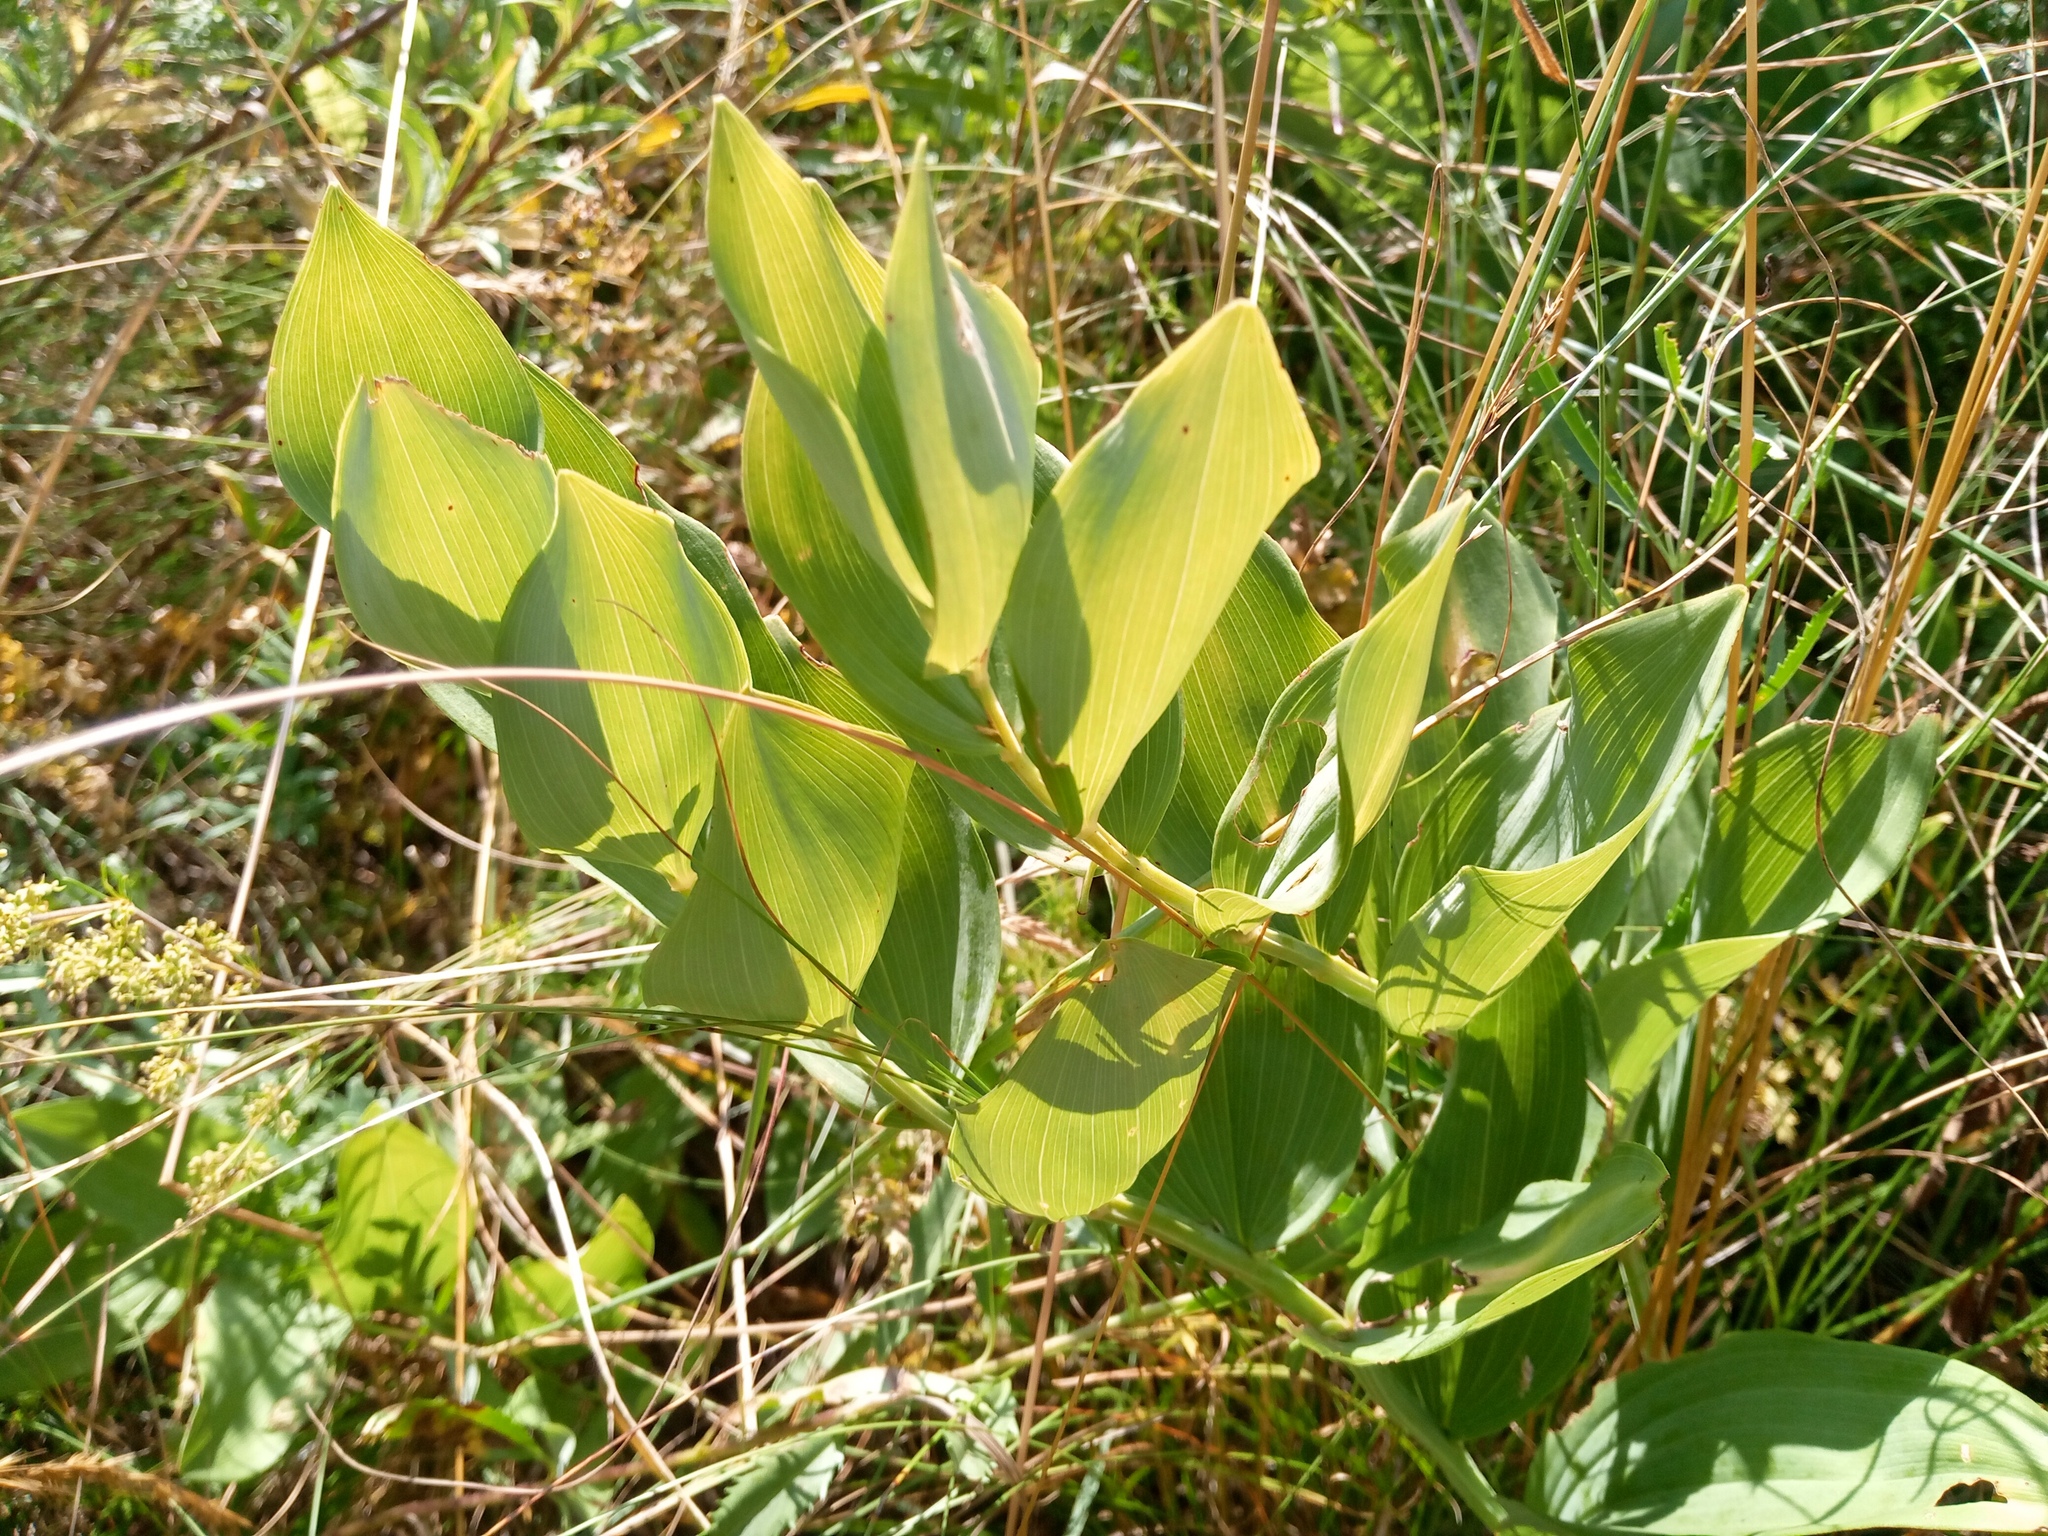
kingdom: Plantae
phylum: Tracheophyta
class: Liliopsida
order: Asparagales
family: Asparagaceae
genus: Polygonatum
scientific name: Polygonatum odoratum
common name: Angular solomon's-seal
